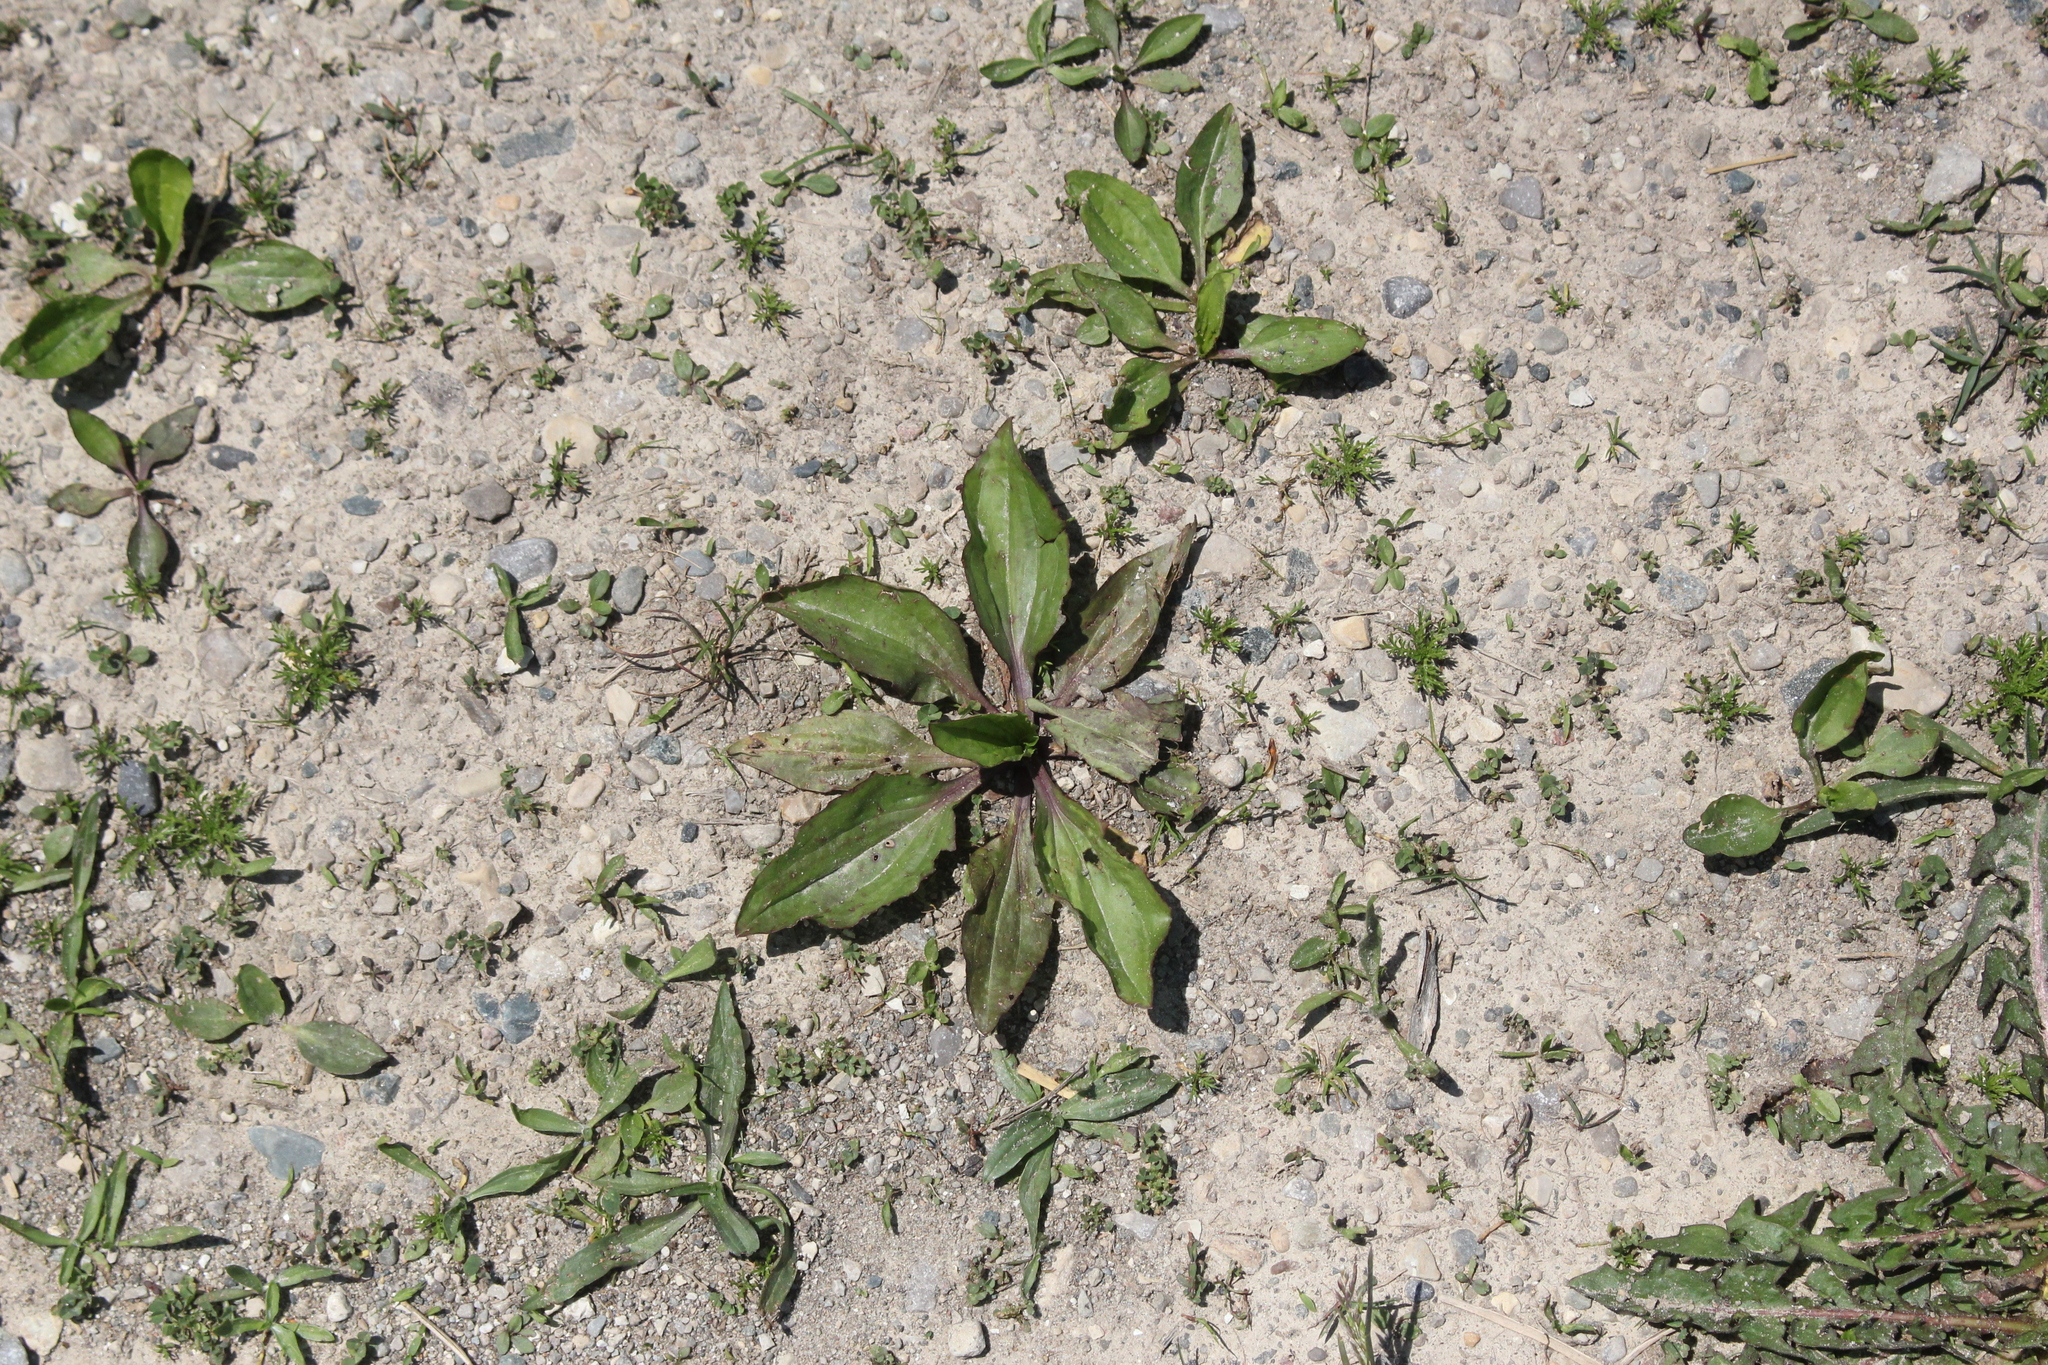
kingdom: Plantae
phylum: Tracheophyta
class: Magnoliopsida
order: Lamiales
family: Plantaginaceae
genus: Plantago
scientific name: Plantago rugelii
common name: American plantain
